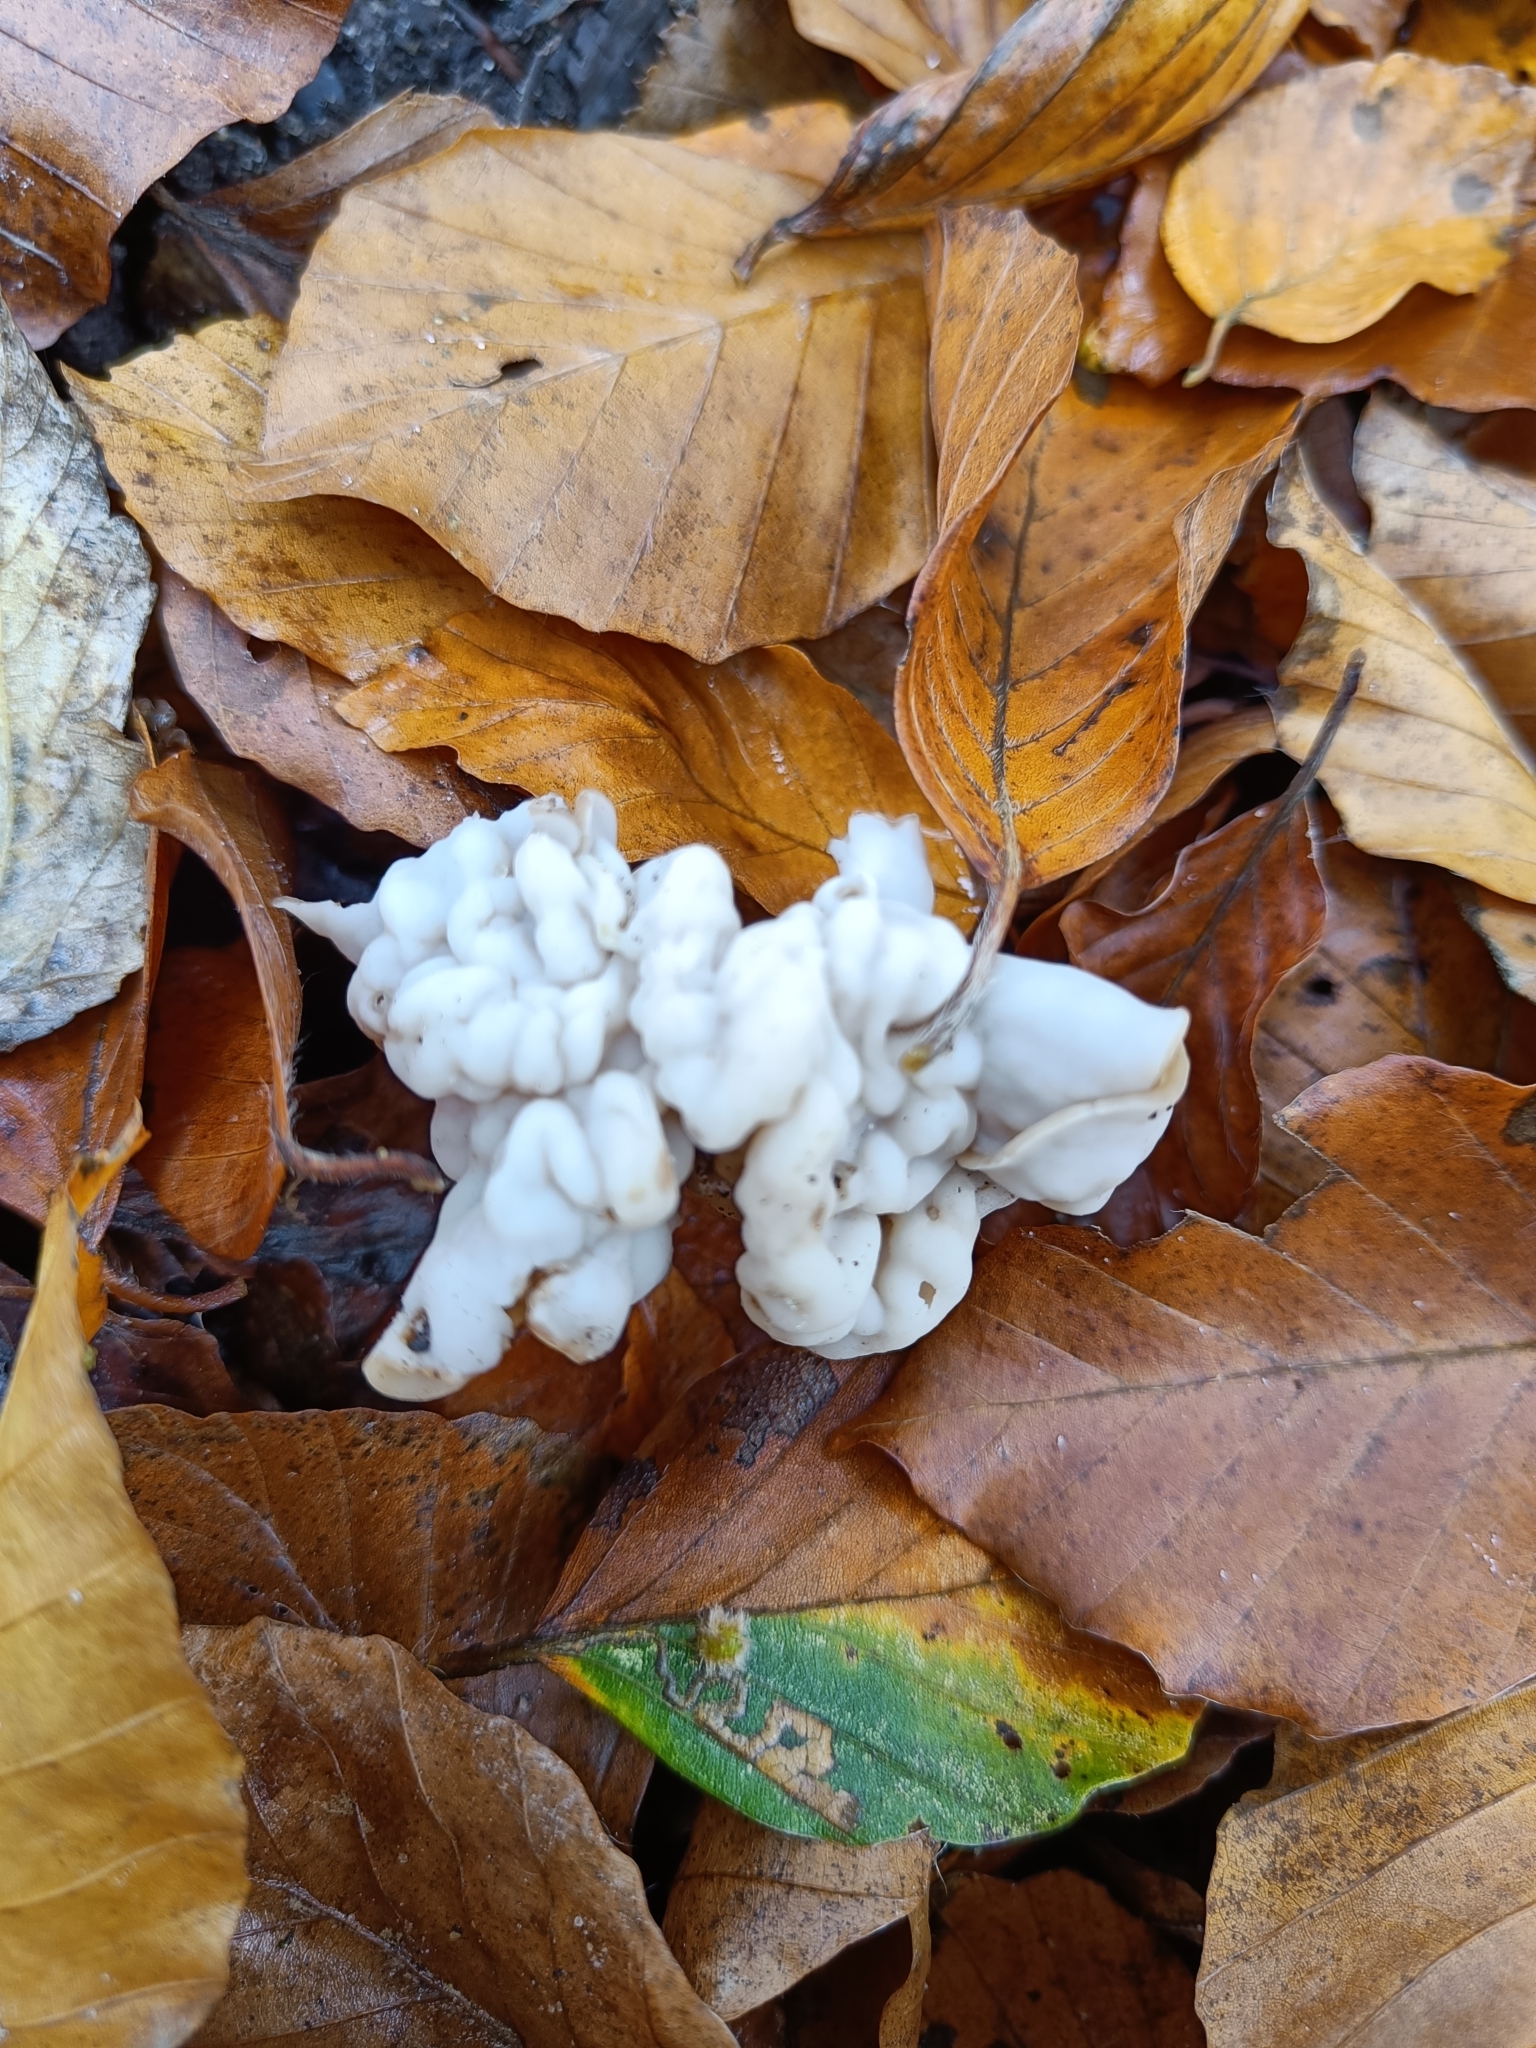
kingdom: Fungi
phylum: Ascomycota
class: Pezizomycetes
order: Pezizales
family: Helvellaceae
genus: Helvella
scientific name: Helvella crispa
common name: White saddle
